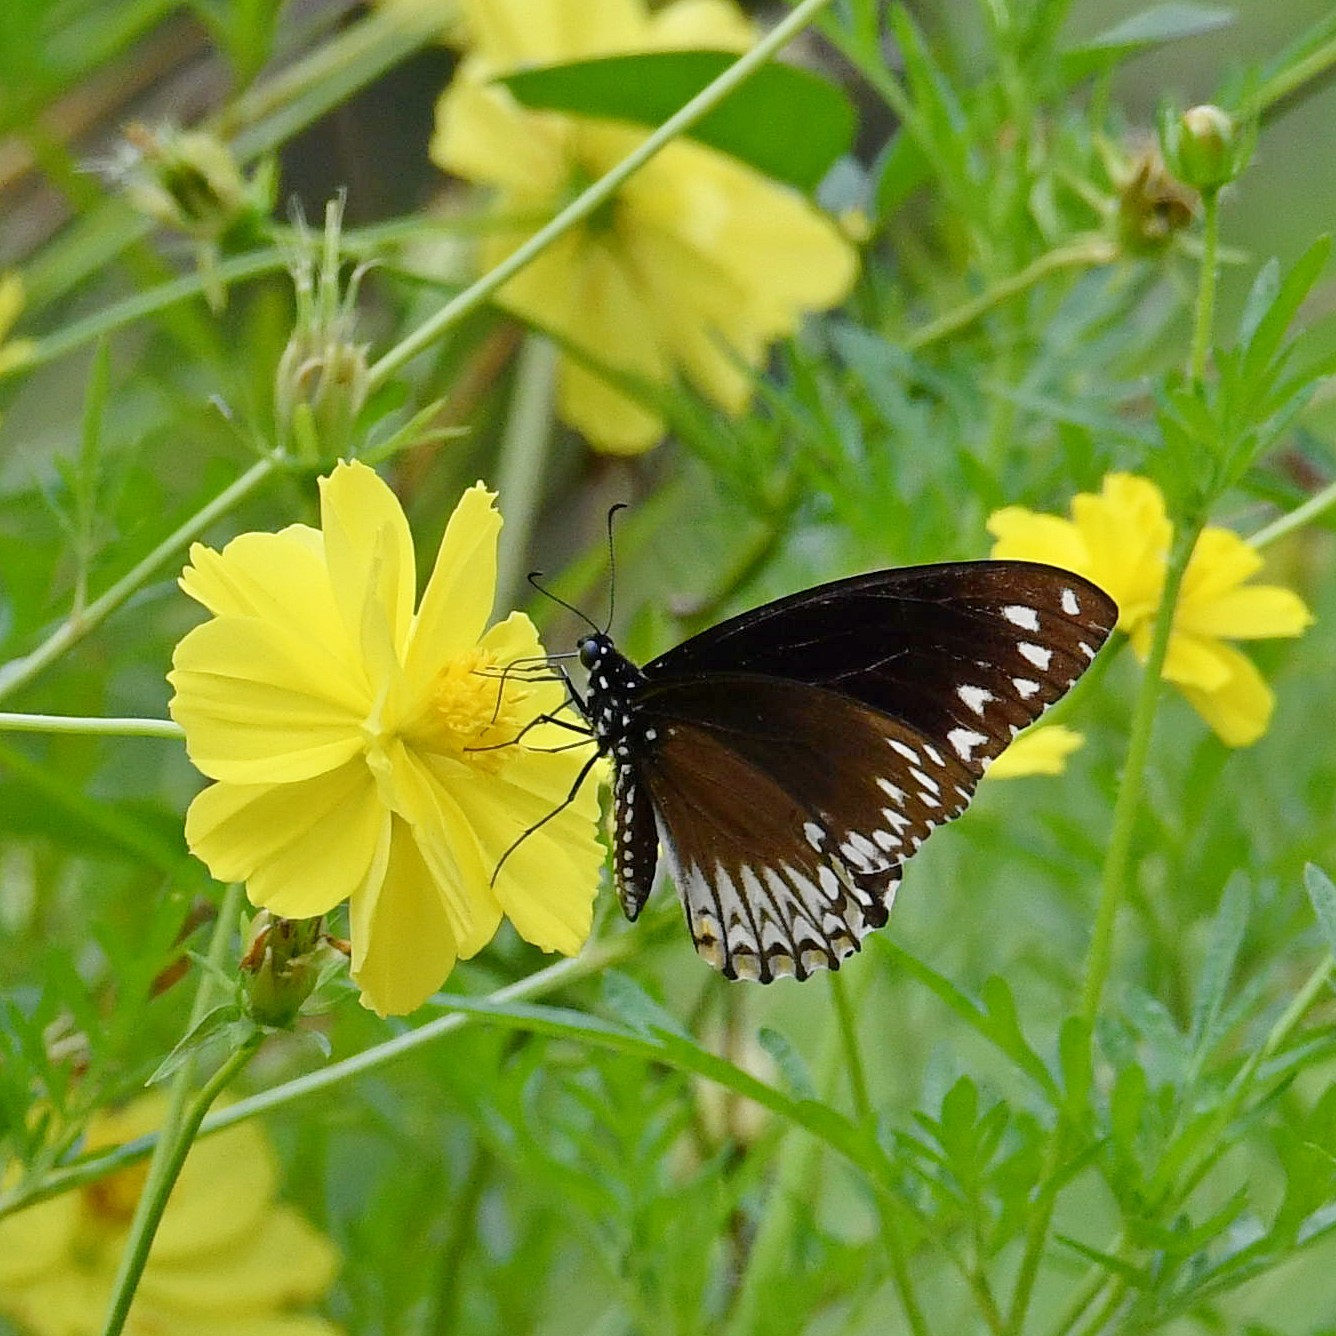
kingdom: Animalia
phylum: Arthropoda
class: Insecta
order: Lepidoptera
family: Papilionidae
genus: Chilasa
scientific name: Chilasa clytia
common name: Common mime
